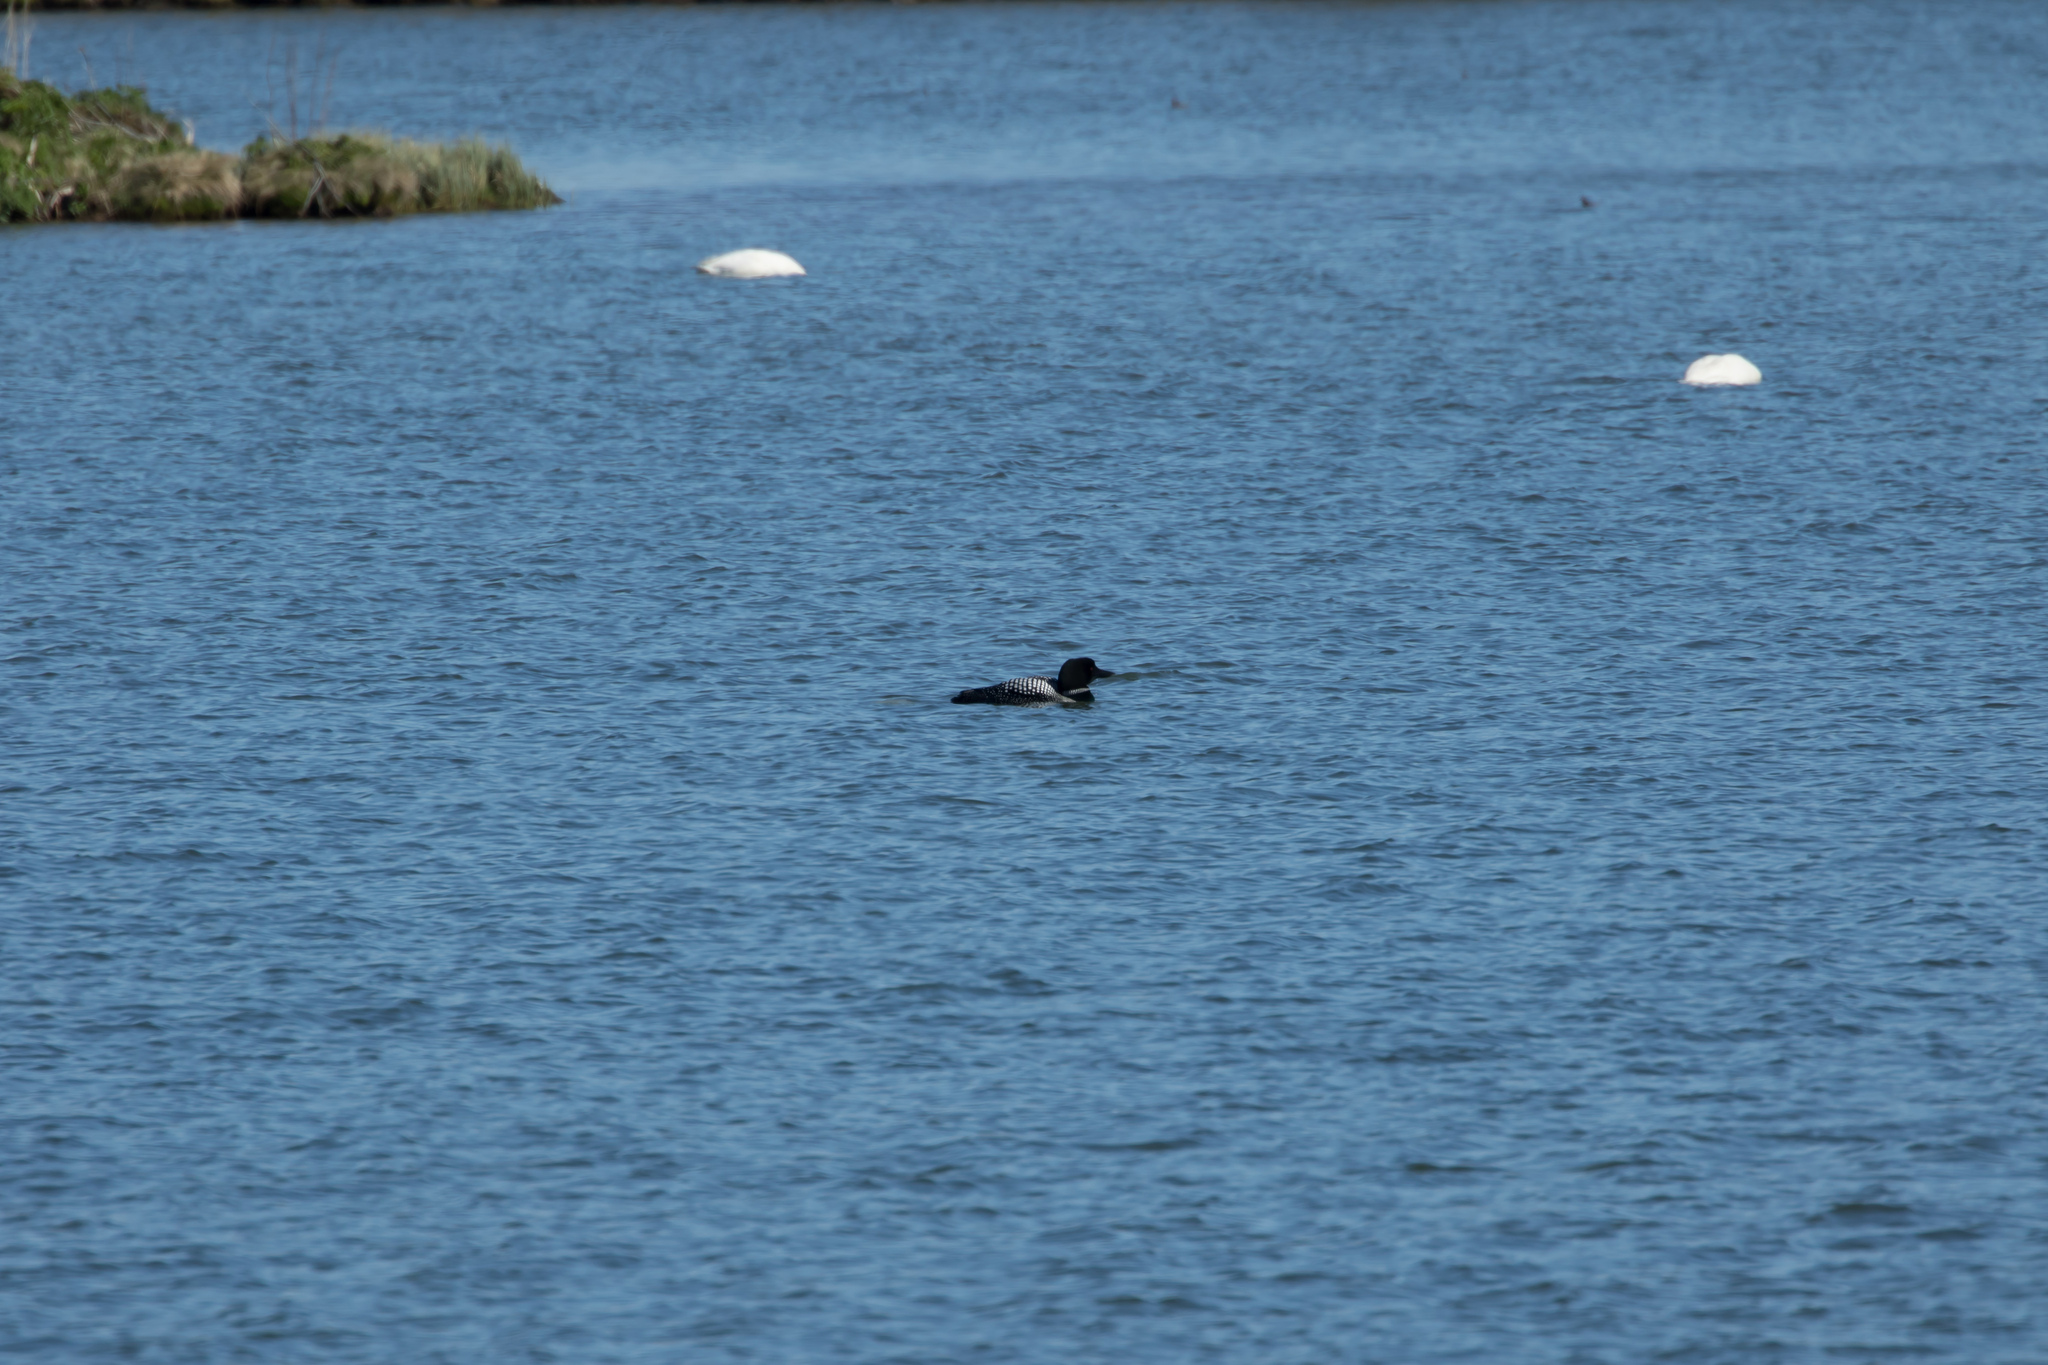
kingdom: Animalia
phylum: Chordata
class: Aves
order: Gaviiformes
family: Gaviidae
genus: Gavia
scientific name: Gavia immer
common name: Common loon
